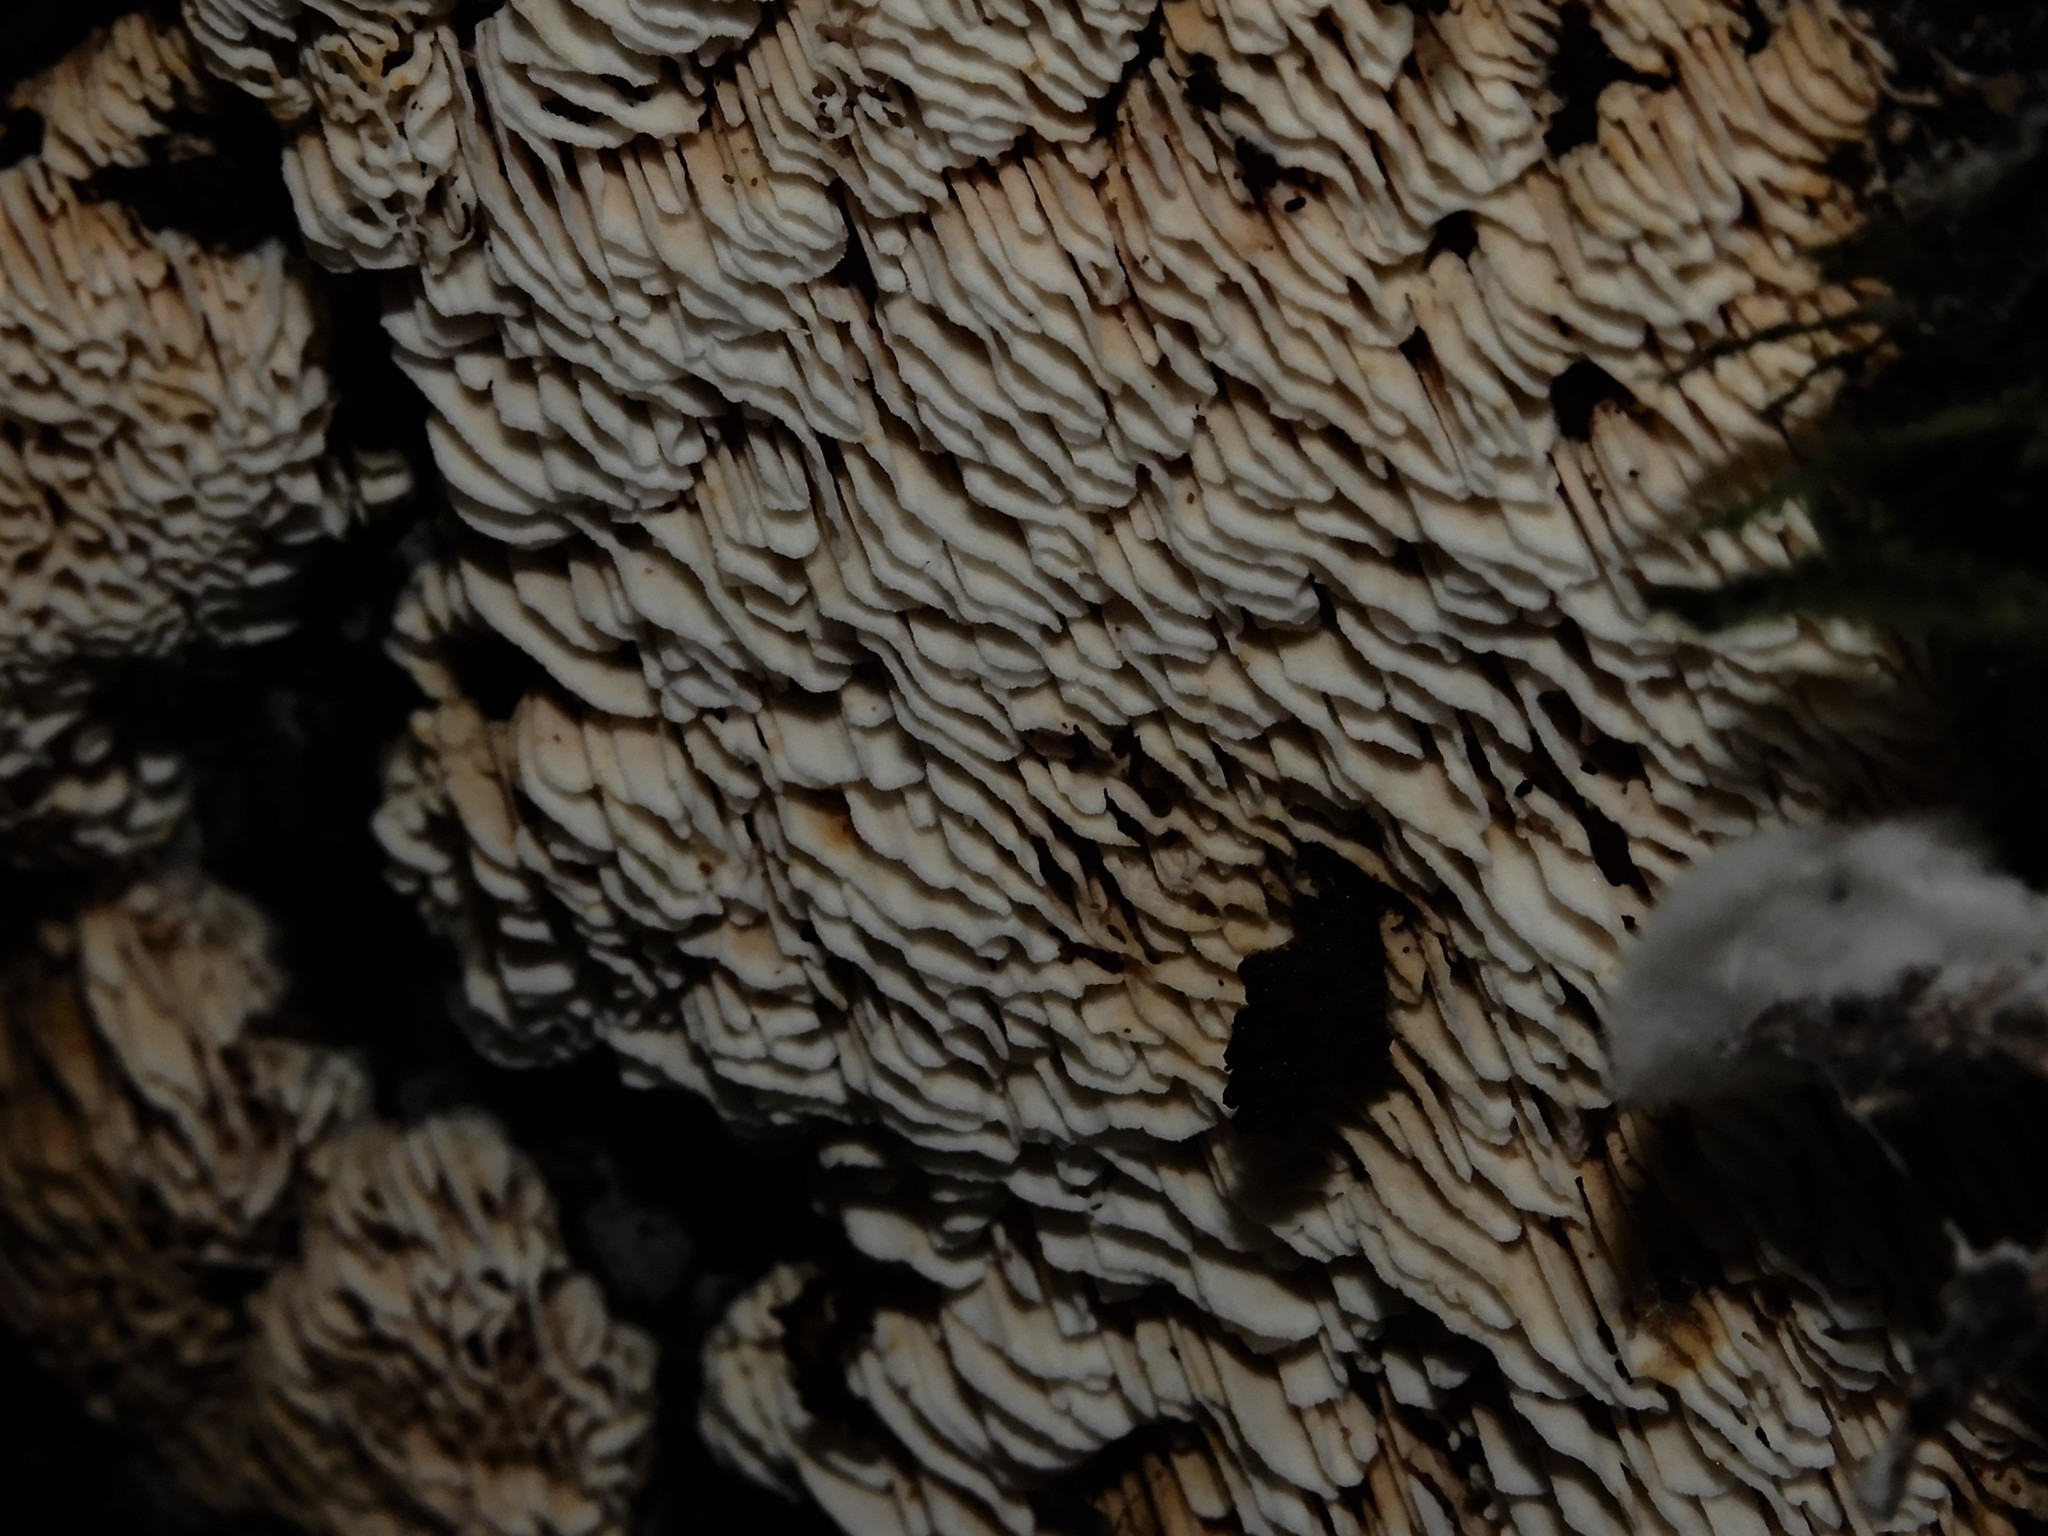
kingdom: Fungi
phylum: Basidiomycota
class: Agaricomycetes
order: Polyporales
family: Meruliaceae
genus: Mycoacia
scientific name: Mycoacia nothofagi
